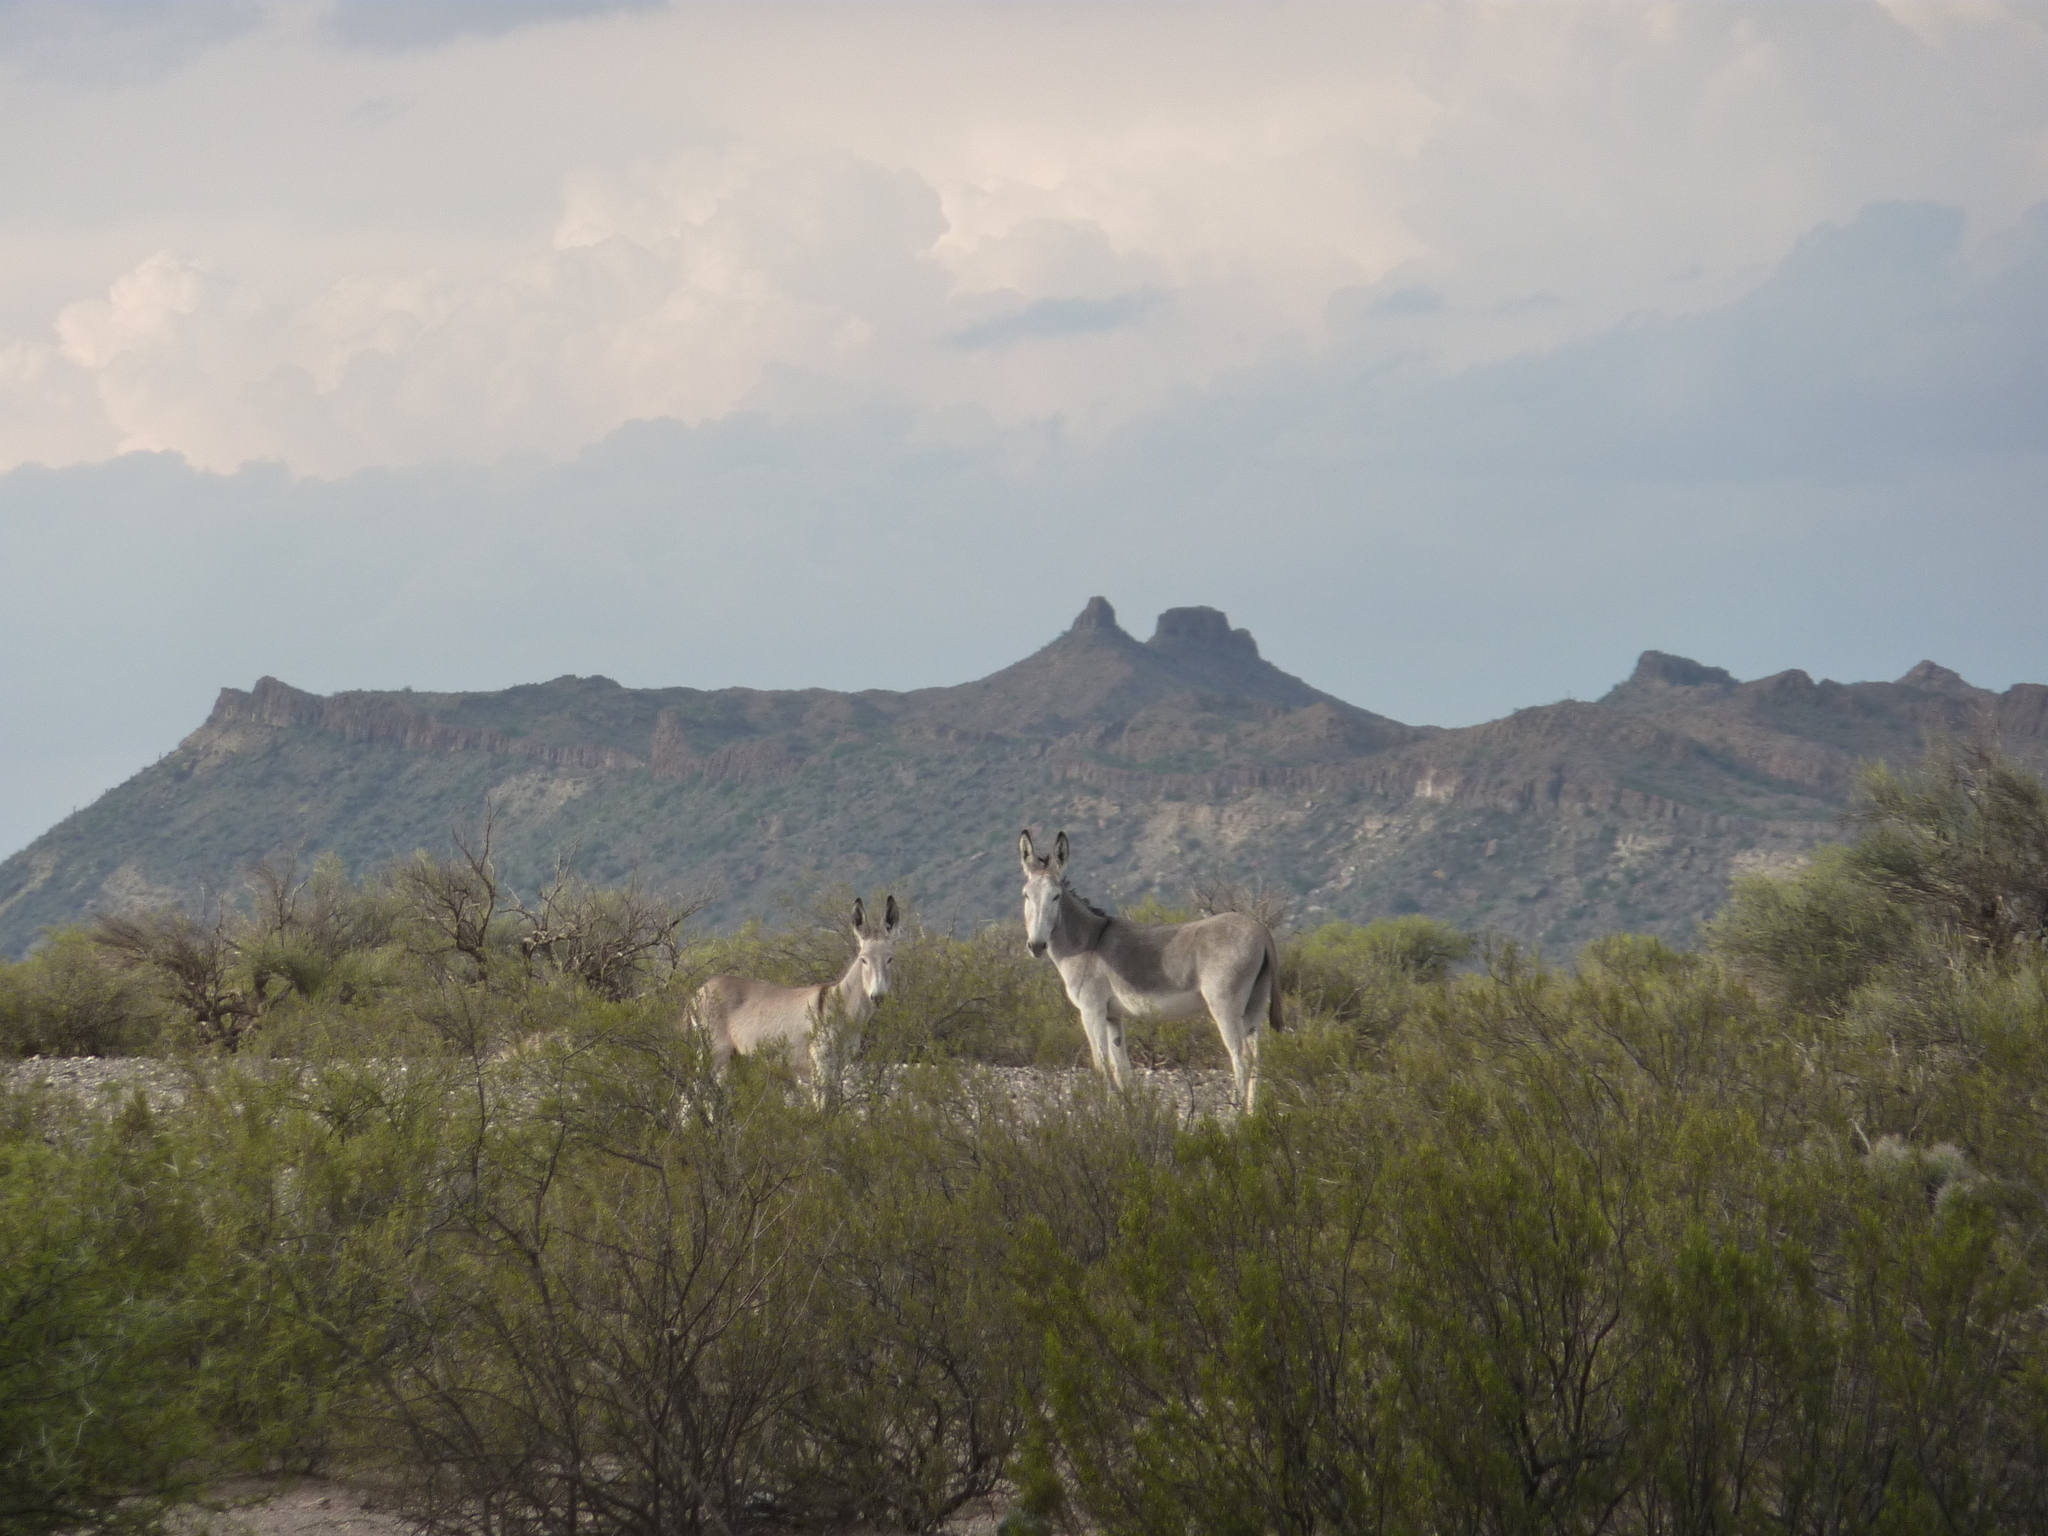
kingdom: Animalia
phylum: Chordata
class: Mammalia
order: Perissodactyla
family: Equidae
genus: Equus
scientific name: Equus asinus
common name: Ass
